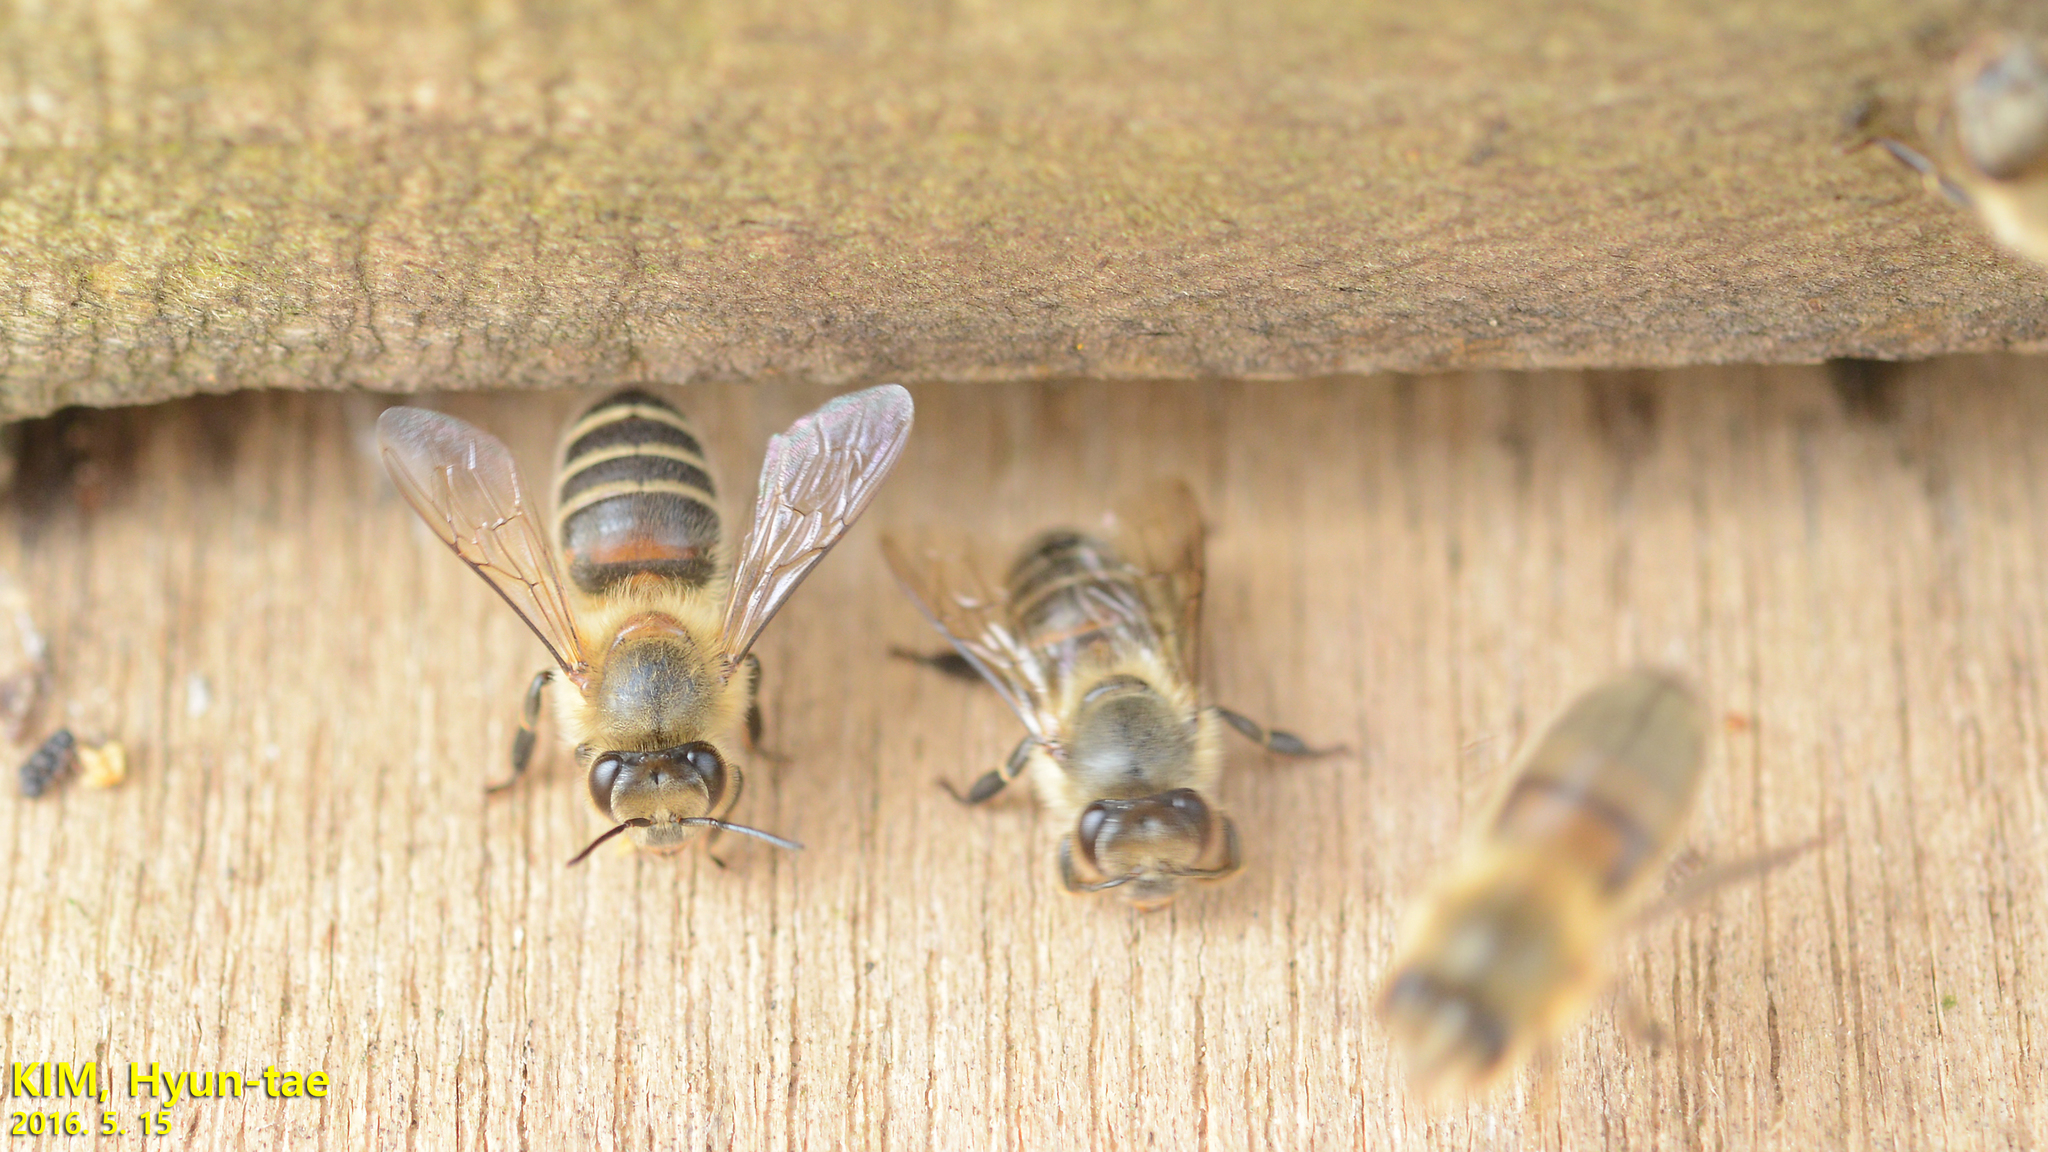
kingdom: Animalia
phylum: Arthropoda
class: Insecta
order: Hymenoptera
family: Apidae
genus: Apis
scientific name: Apis cerana
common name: Honey bee
